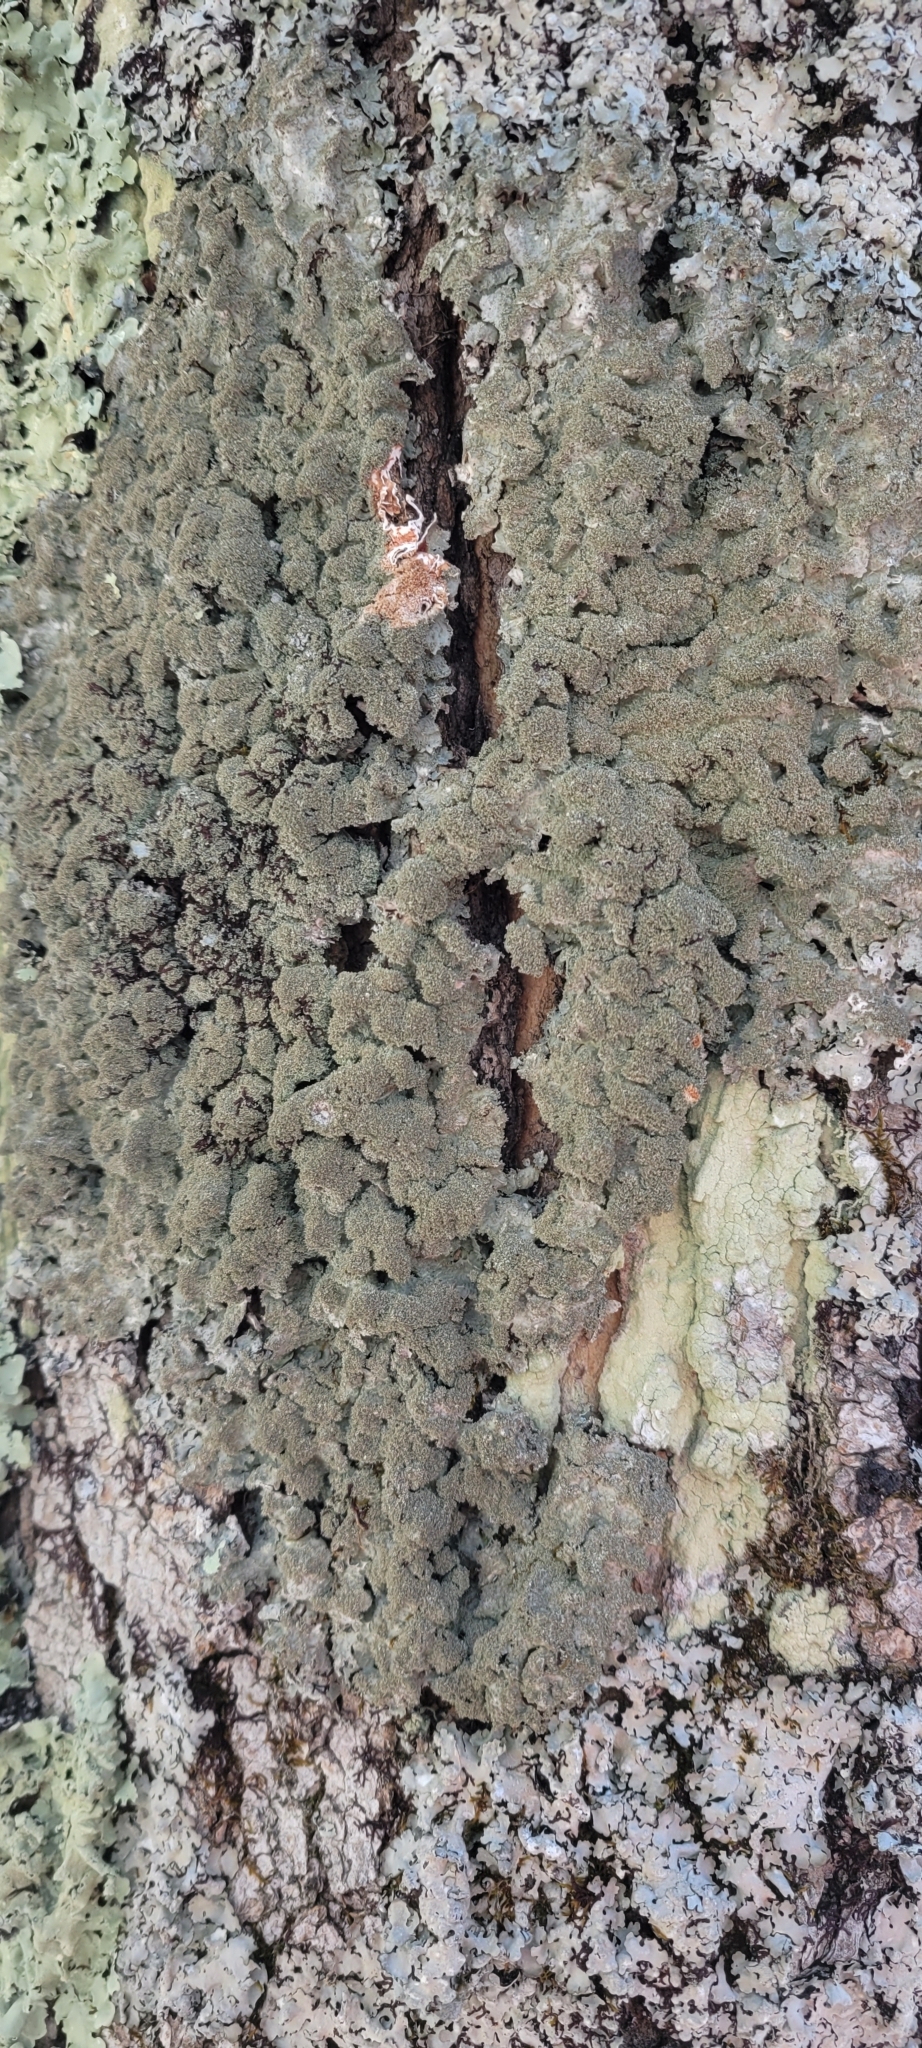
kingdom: Fungi
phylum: Ascomycota
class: Lecanoromycetes
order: Lecanorales
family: Parmeliaceae
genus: Punctelia
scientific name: Punctelia rudecta
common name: Rough speckled shield lichen
